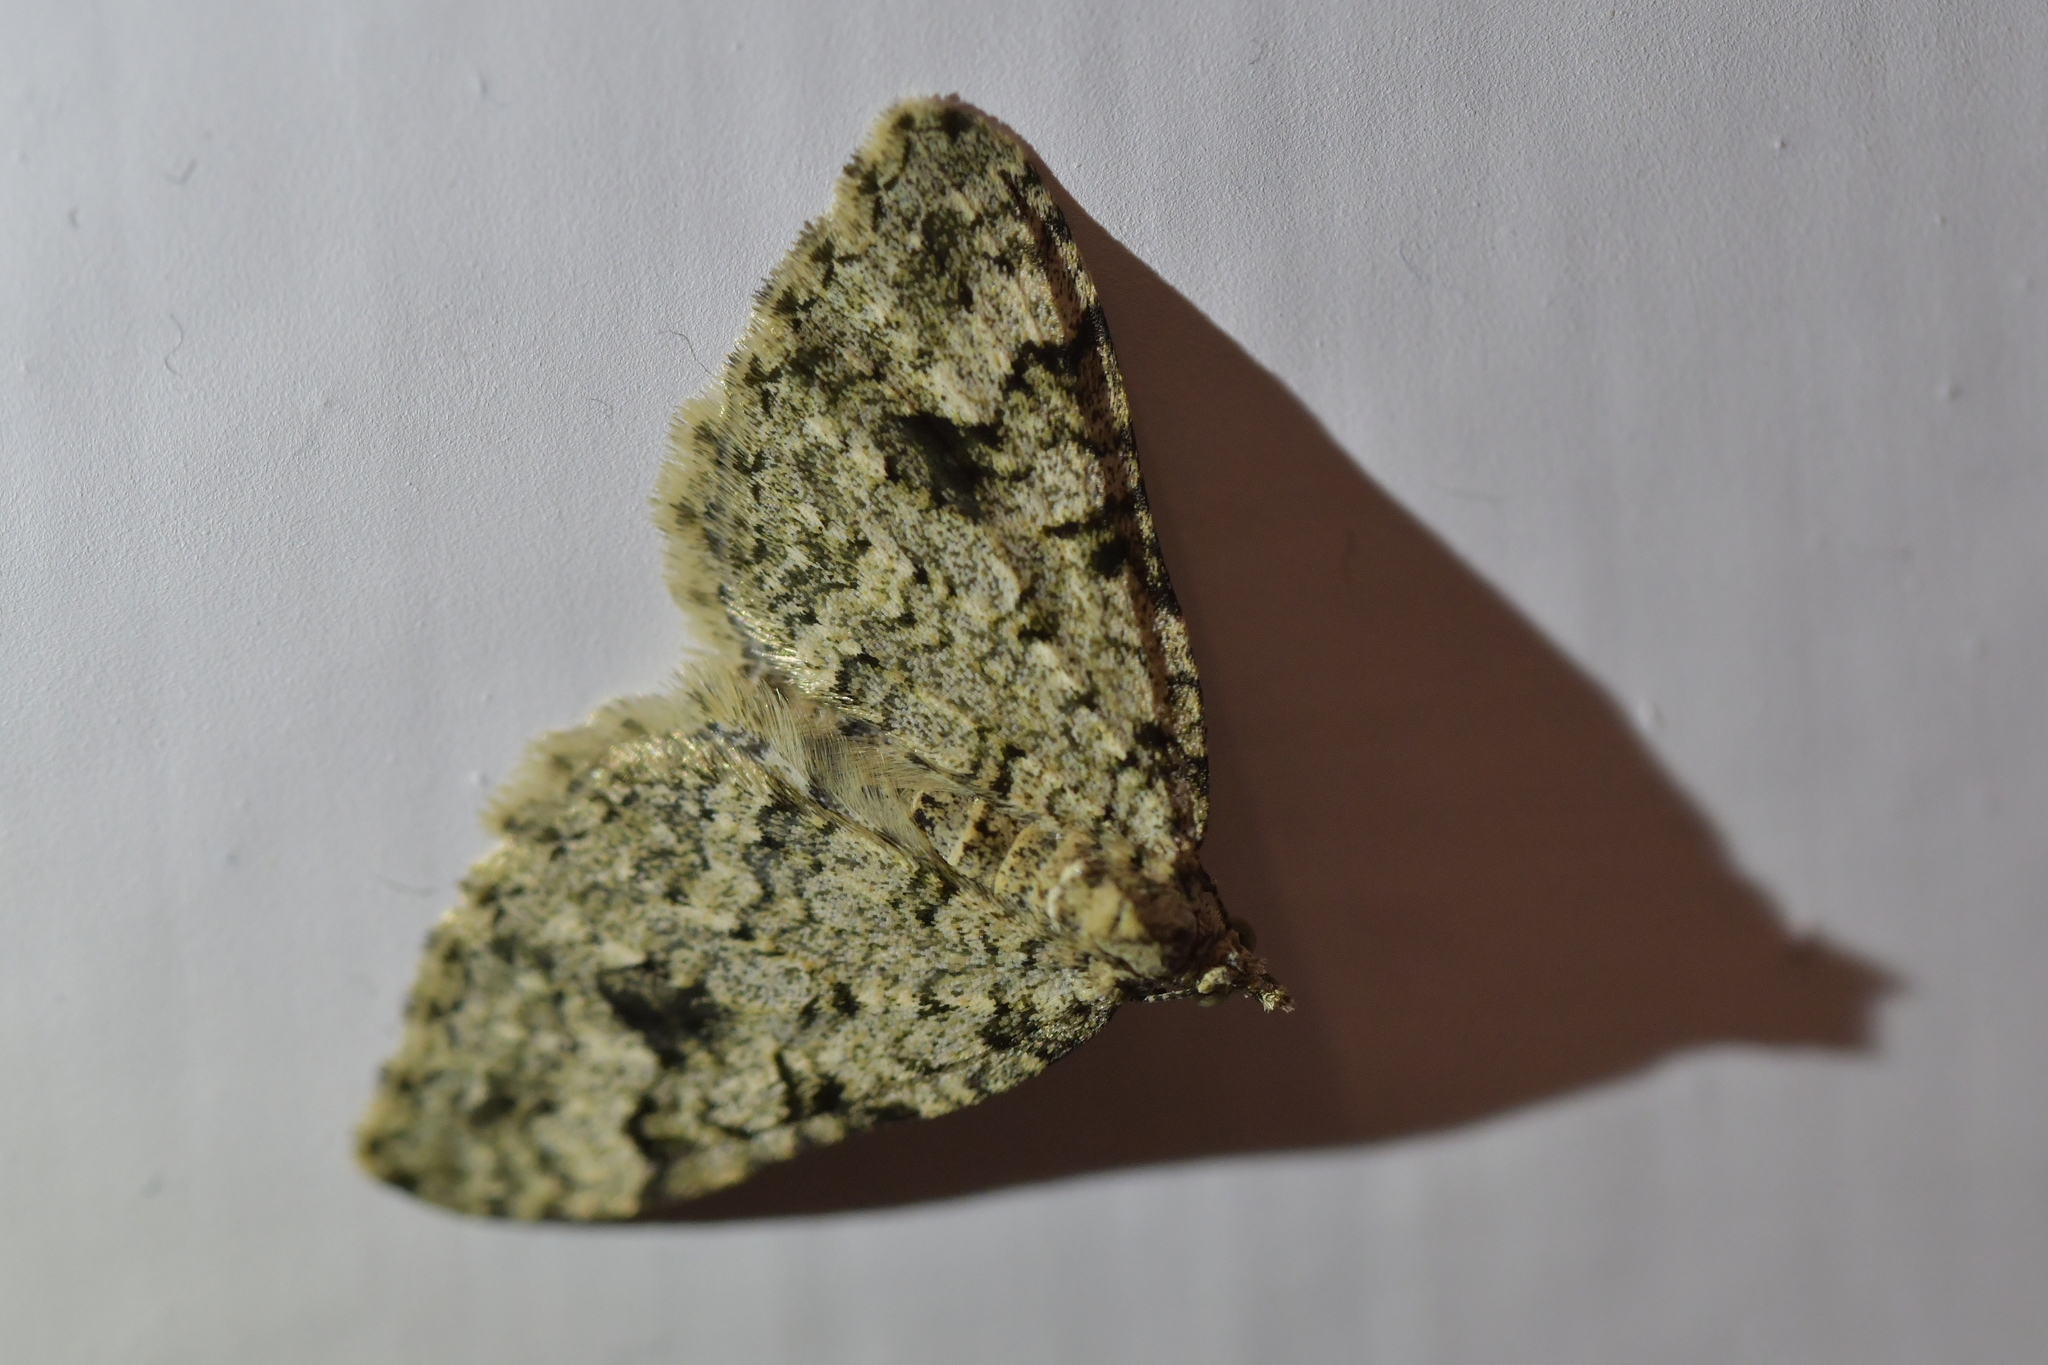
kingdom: Animalia
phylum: Arthropoda
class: Insecta
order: Lepidoptera
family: Geometridae
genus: Helastia
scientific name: Helastia cinerearia
